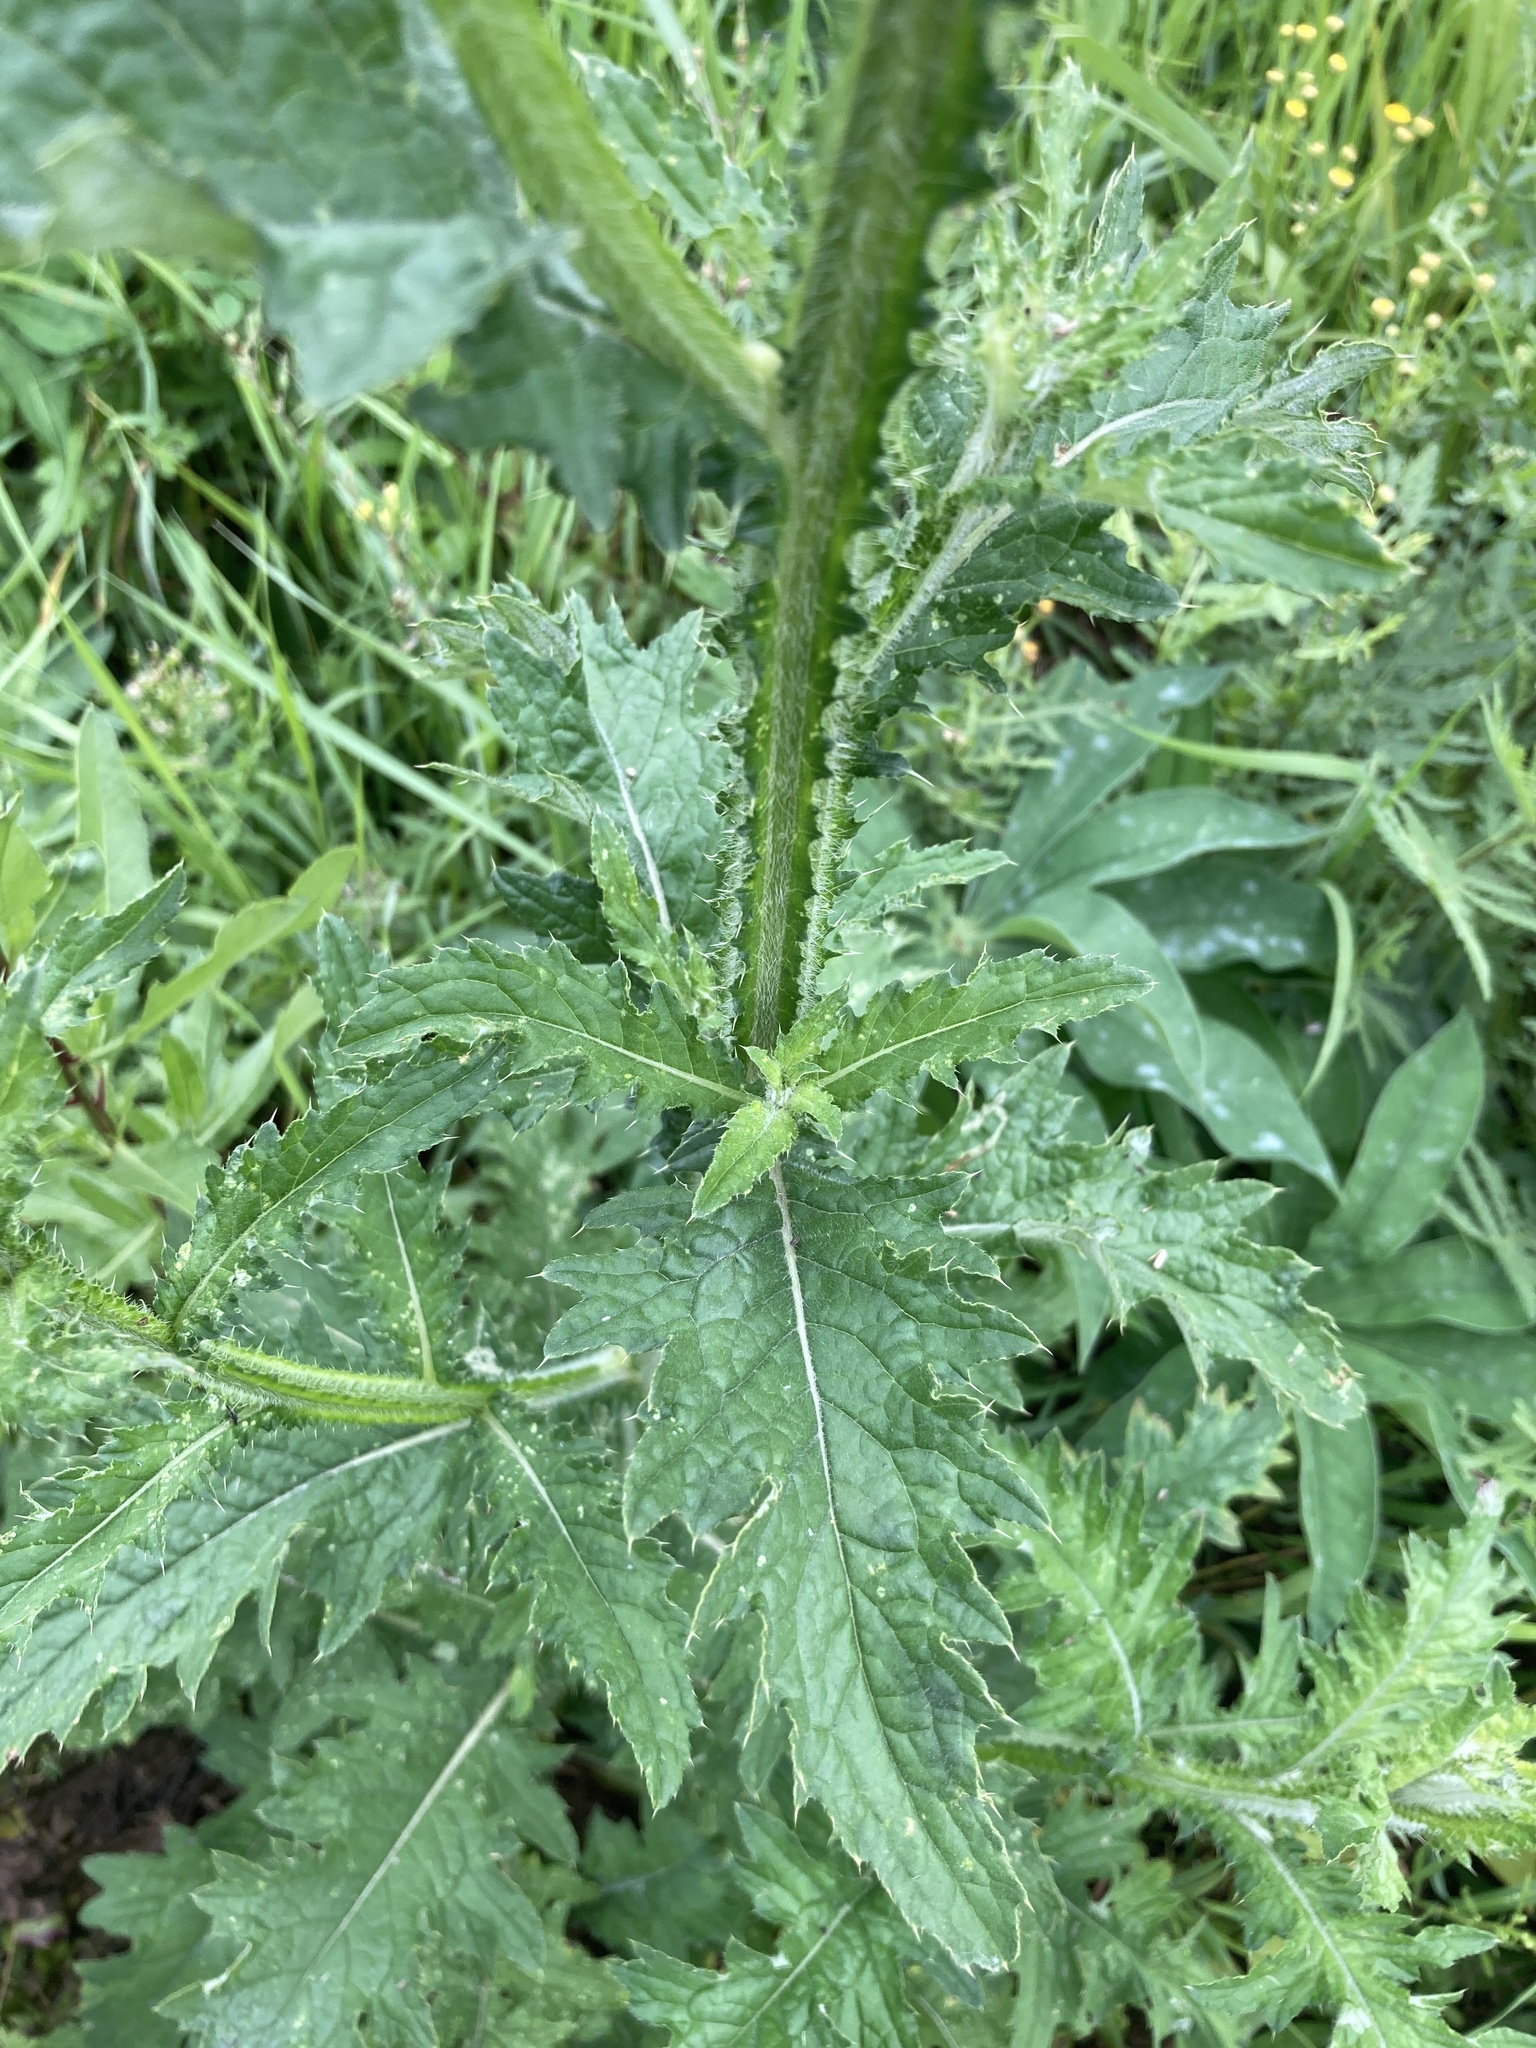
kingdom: Plantae
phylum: Tracheophyta
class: Magnoliopsida
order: Asterales
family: Asteraceae
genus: Carduus
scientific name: Carduus crispus
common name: Welted thistle
